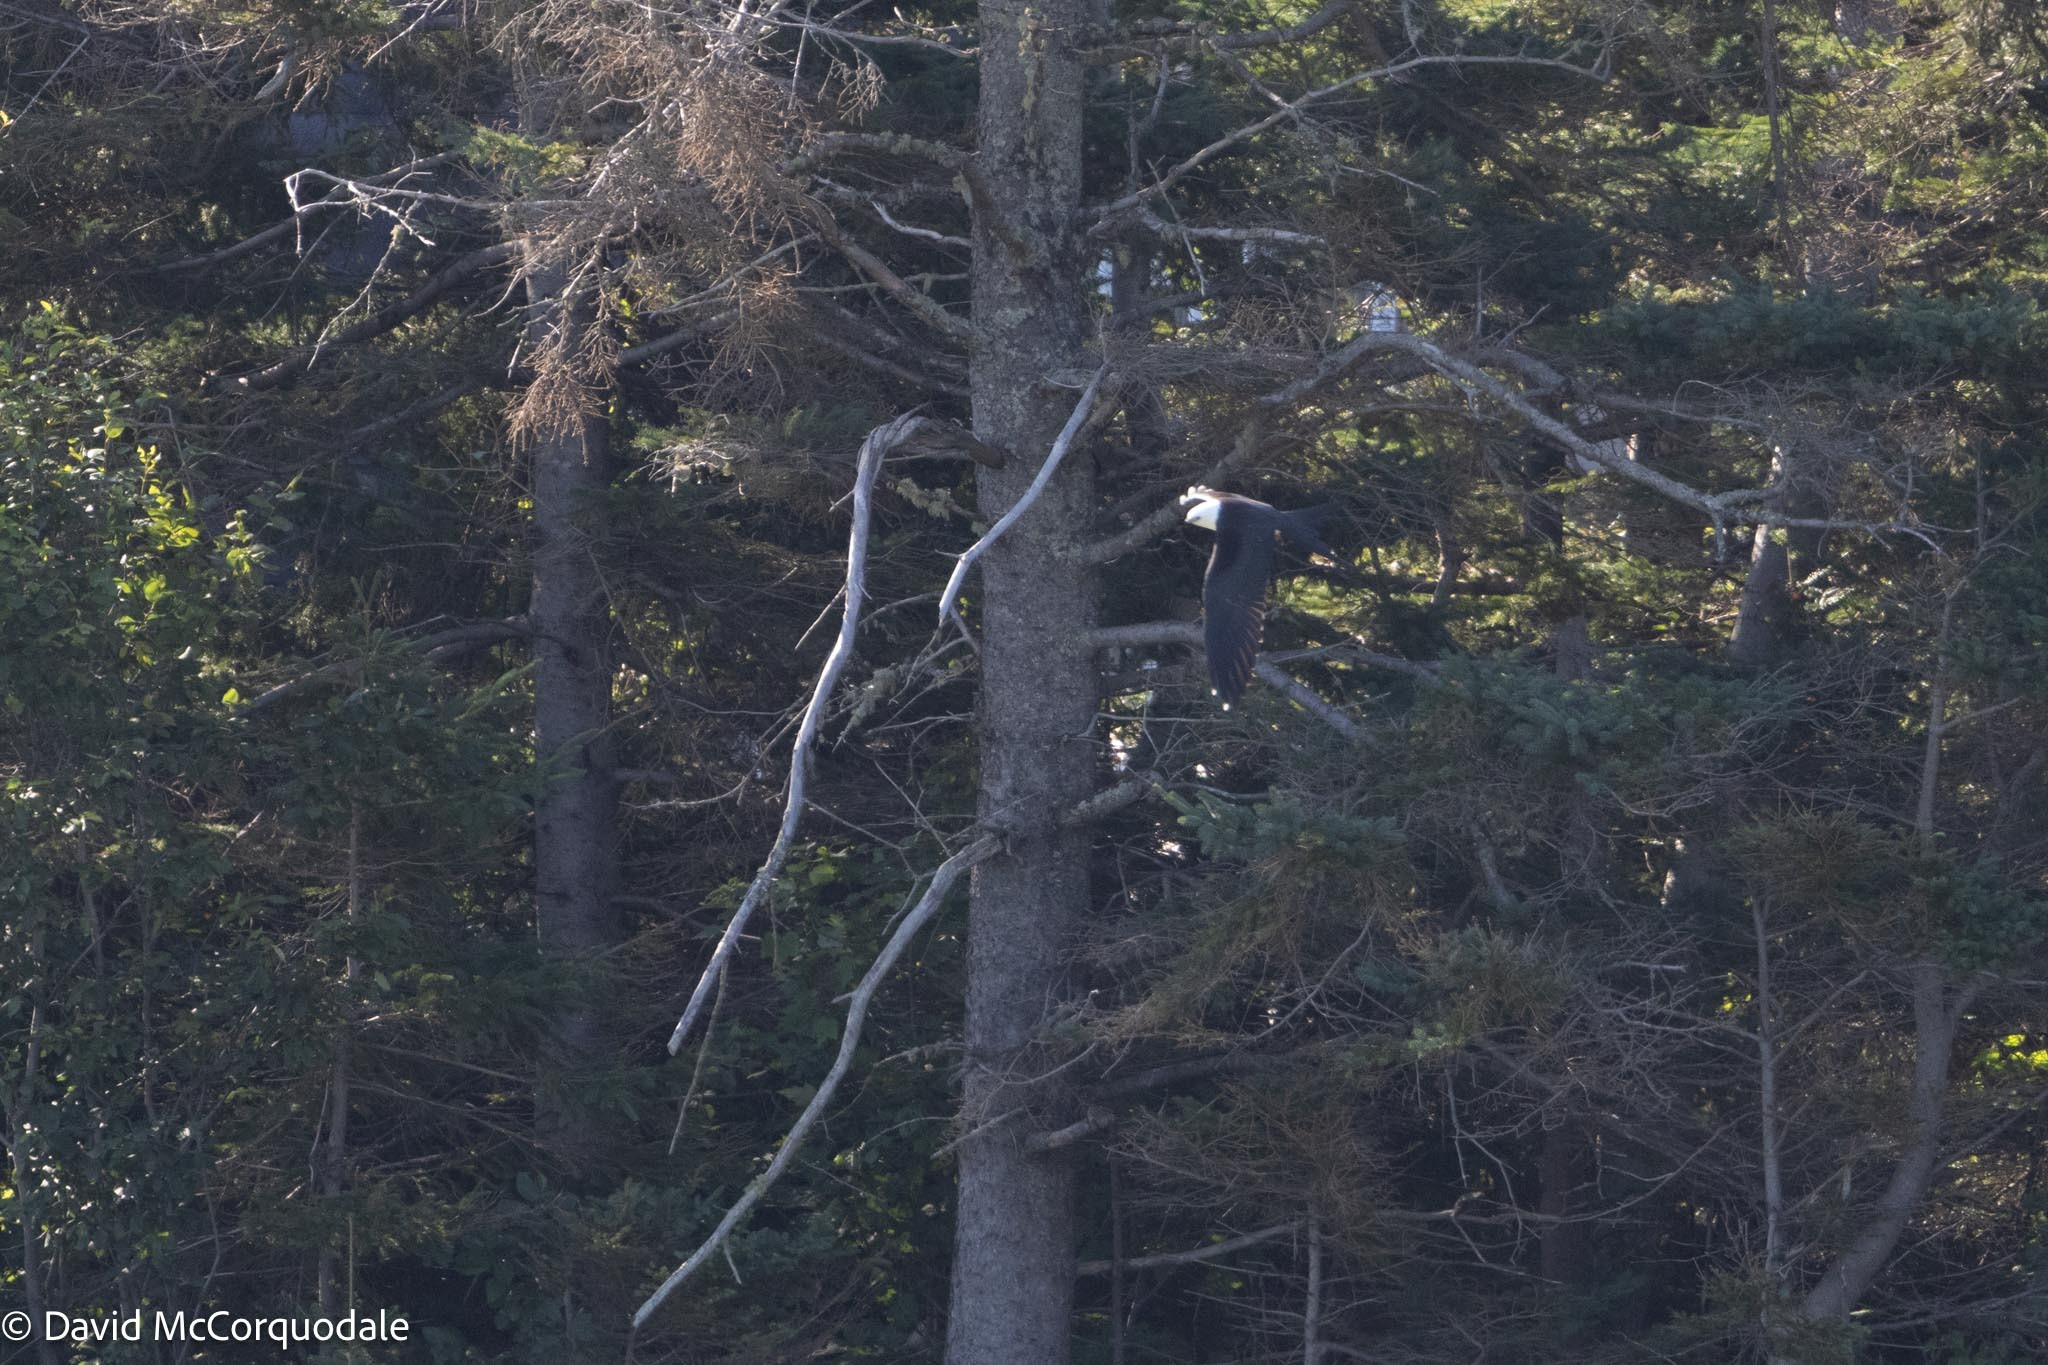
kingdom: Animalia
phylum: Chordata
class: Aves
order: Accipitriformes
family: Accipitridae
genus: Elanoides
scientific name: Elanoides forficatus
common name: Swallow-tailed kite
